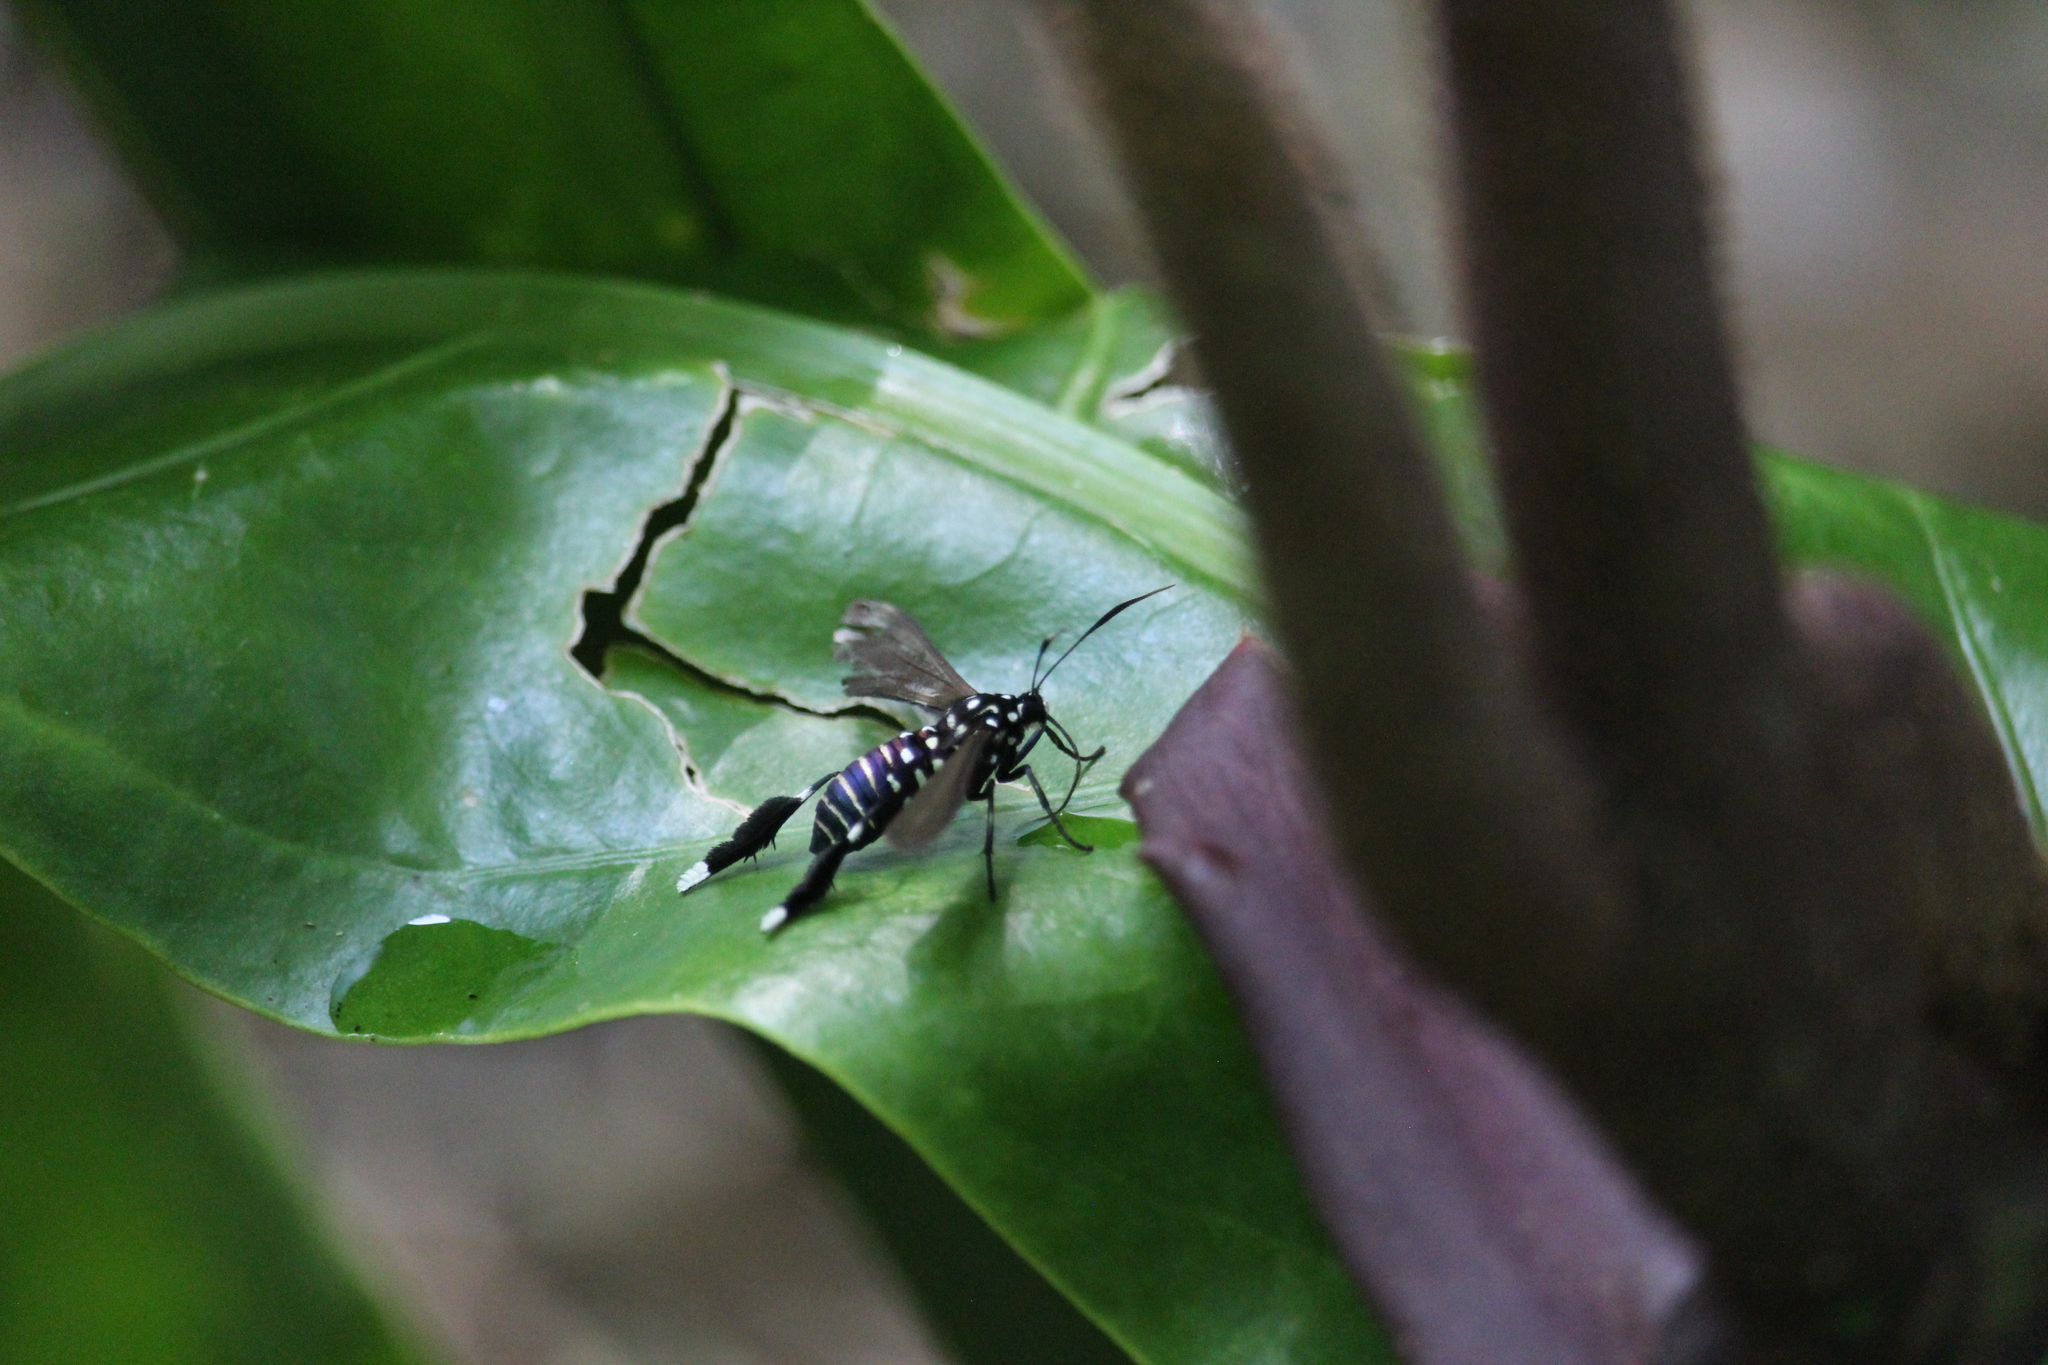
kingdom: Animalia
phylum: Arthropoda
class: Insecta
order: Lepidoptera
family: Erebidae
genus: Horama
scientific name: Horama plumipes
